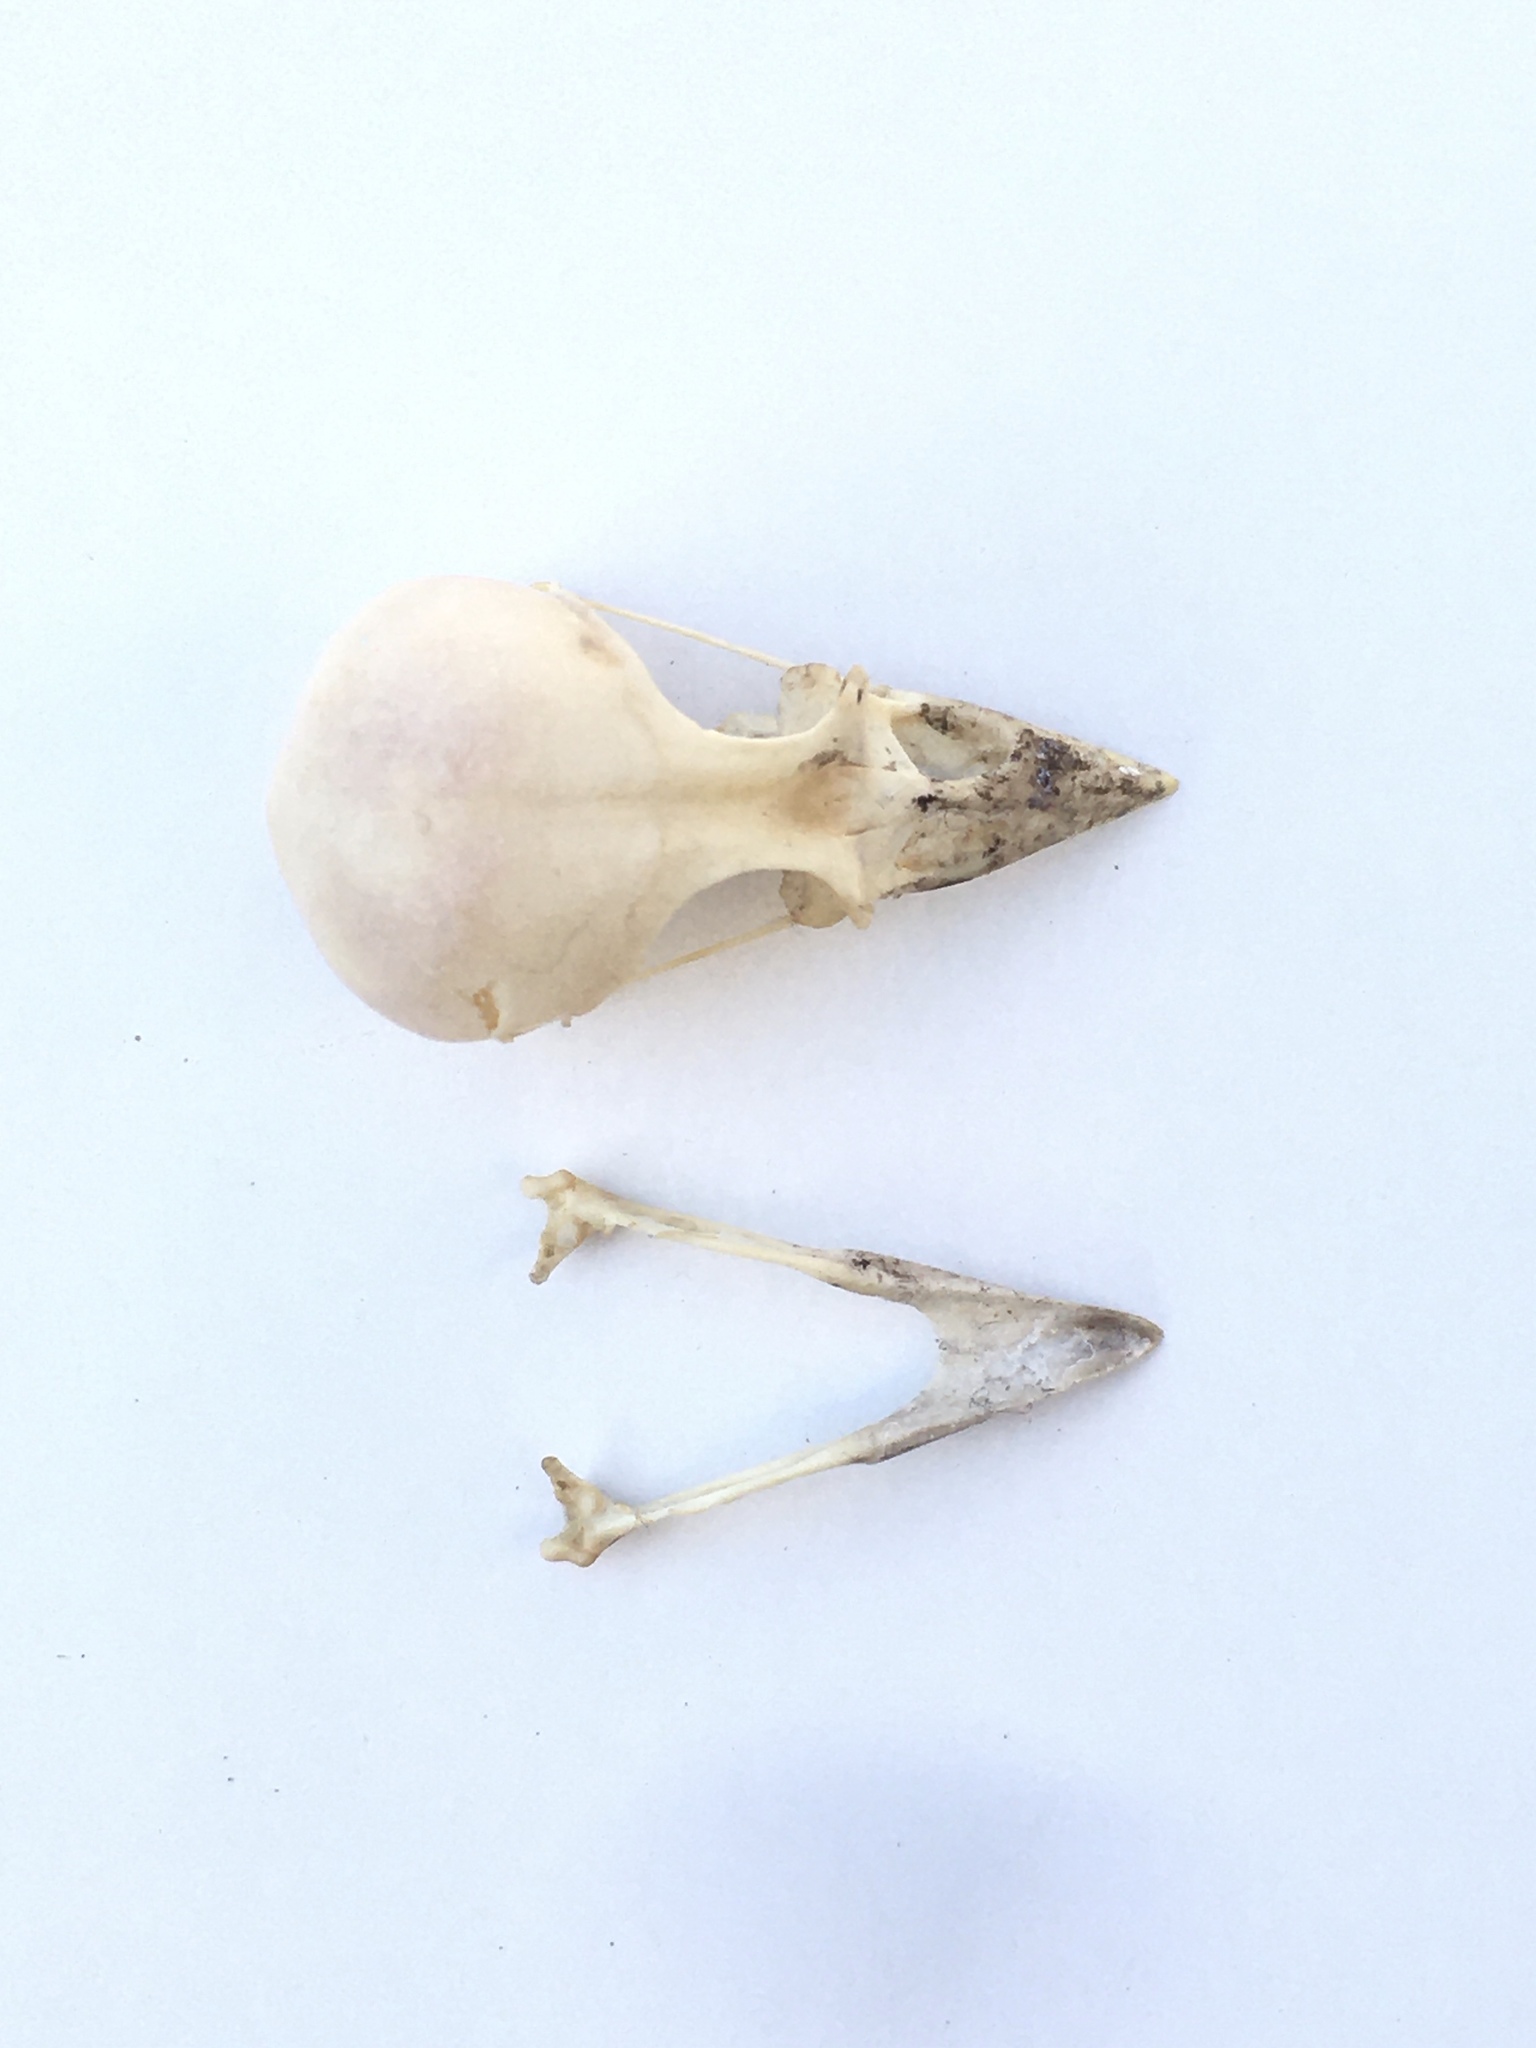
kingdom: Animalia
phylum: Chordata
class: Aves
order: Passeriformes
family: Fringillidae
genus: Fringilla
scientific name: Fringilla coelebs
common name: Common chaffinch
